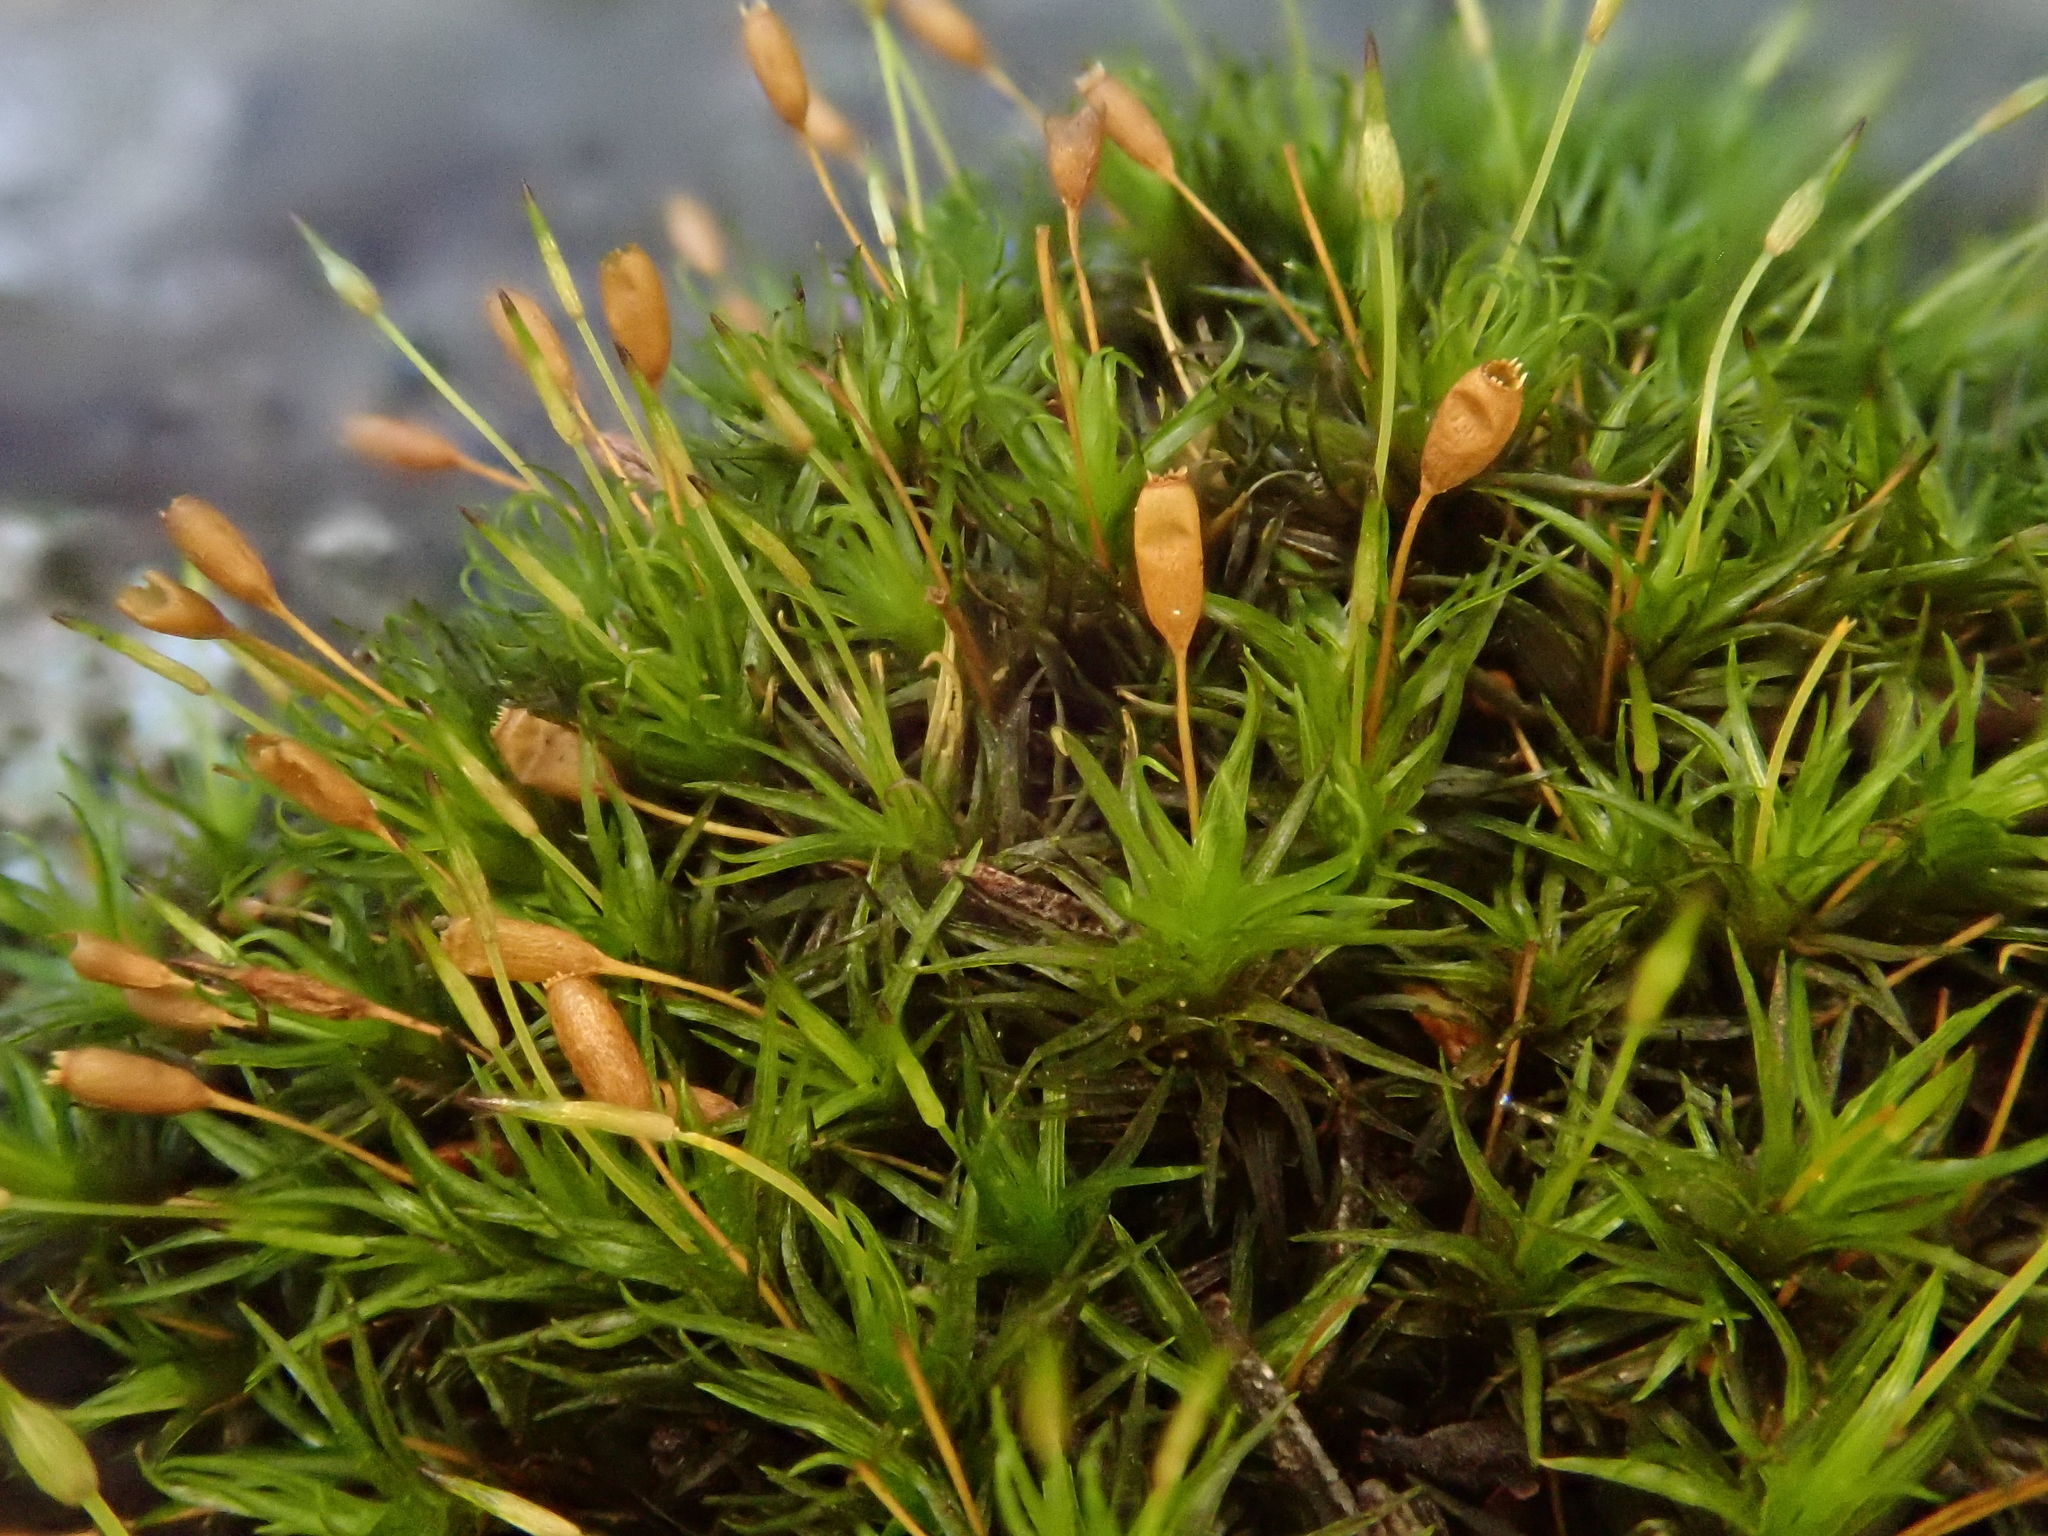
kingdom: Plantae
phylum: Bryophyta
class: Bryopsida
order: Grimmiales
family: Ptychomitriaceae
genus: Ptychomitrium
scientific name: Ptychomitrium polyphyllum
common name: Greater pincushion
